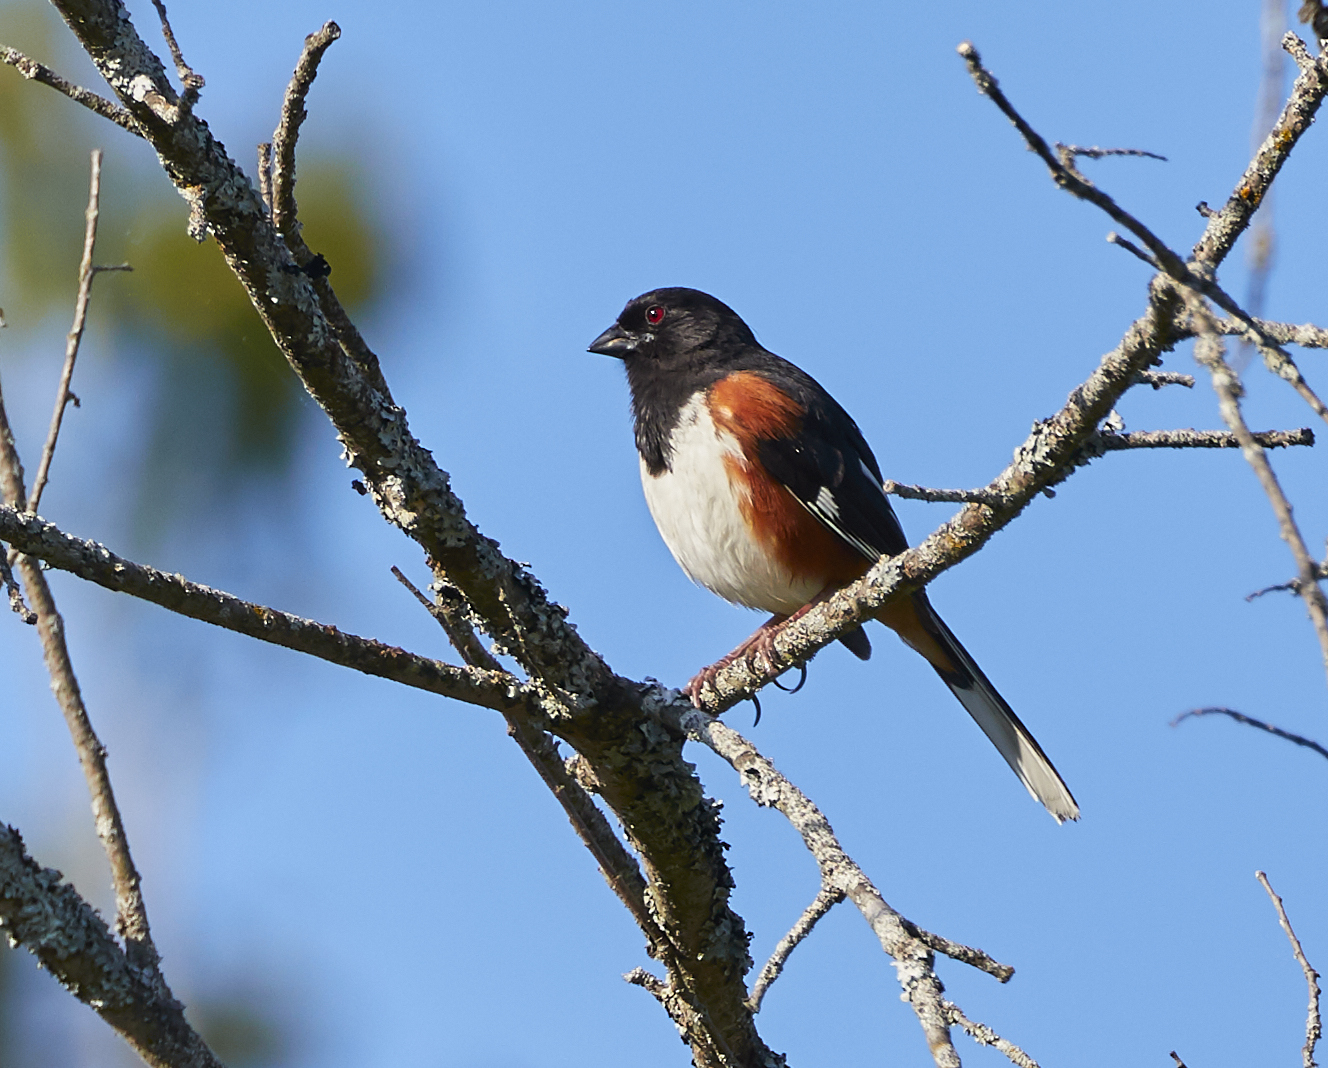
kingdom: Animalia
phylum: Chordata
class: Aves
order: Passeriformes
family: Passerellidae
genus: Pipilo
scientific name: Pipilo erythrophthalmus
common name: Eastern towhee
